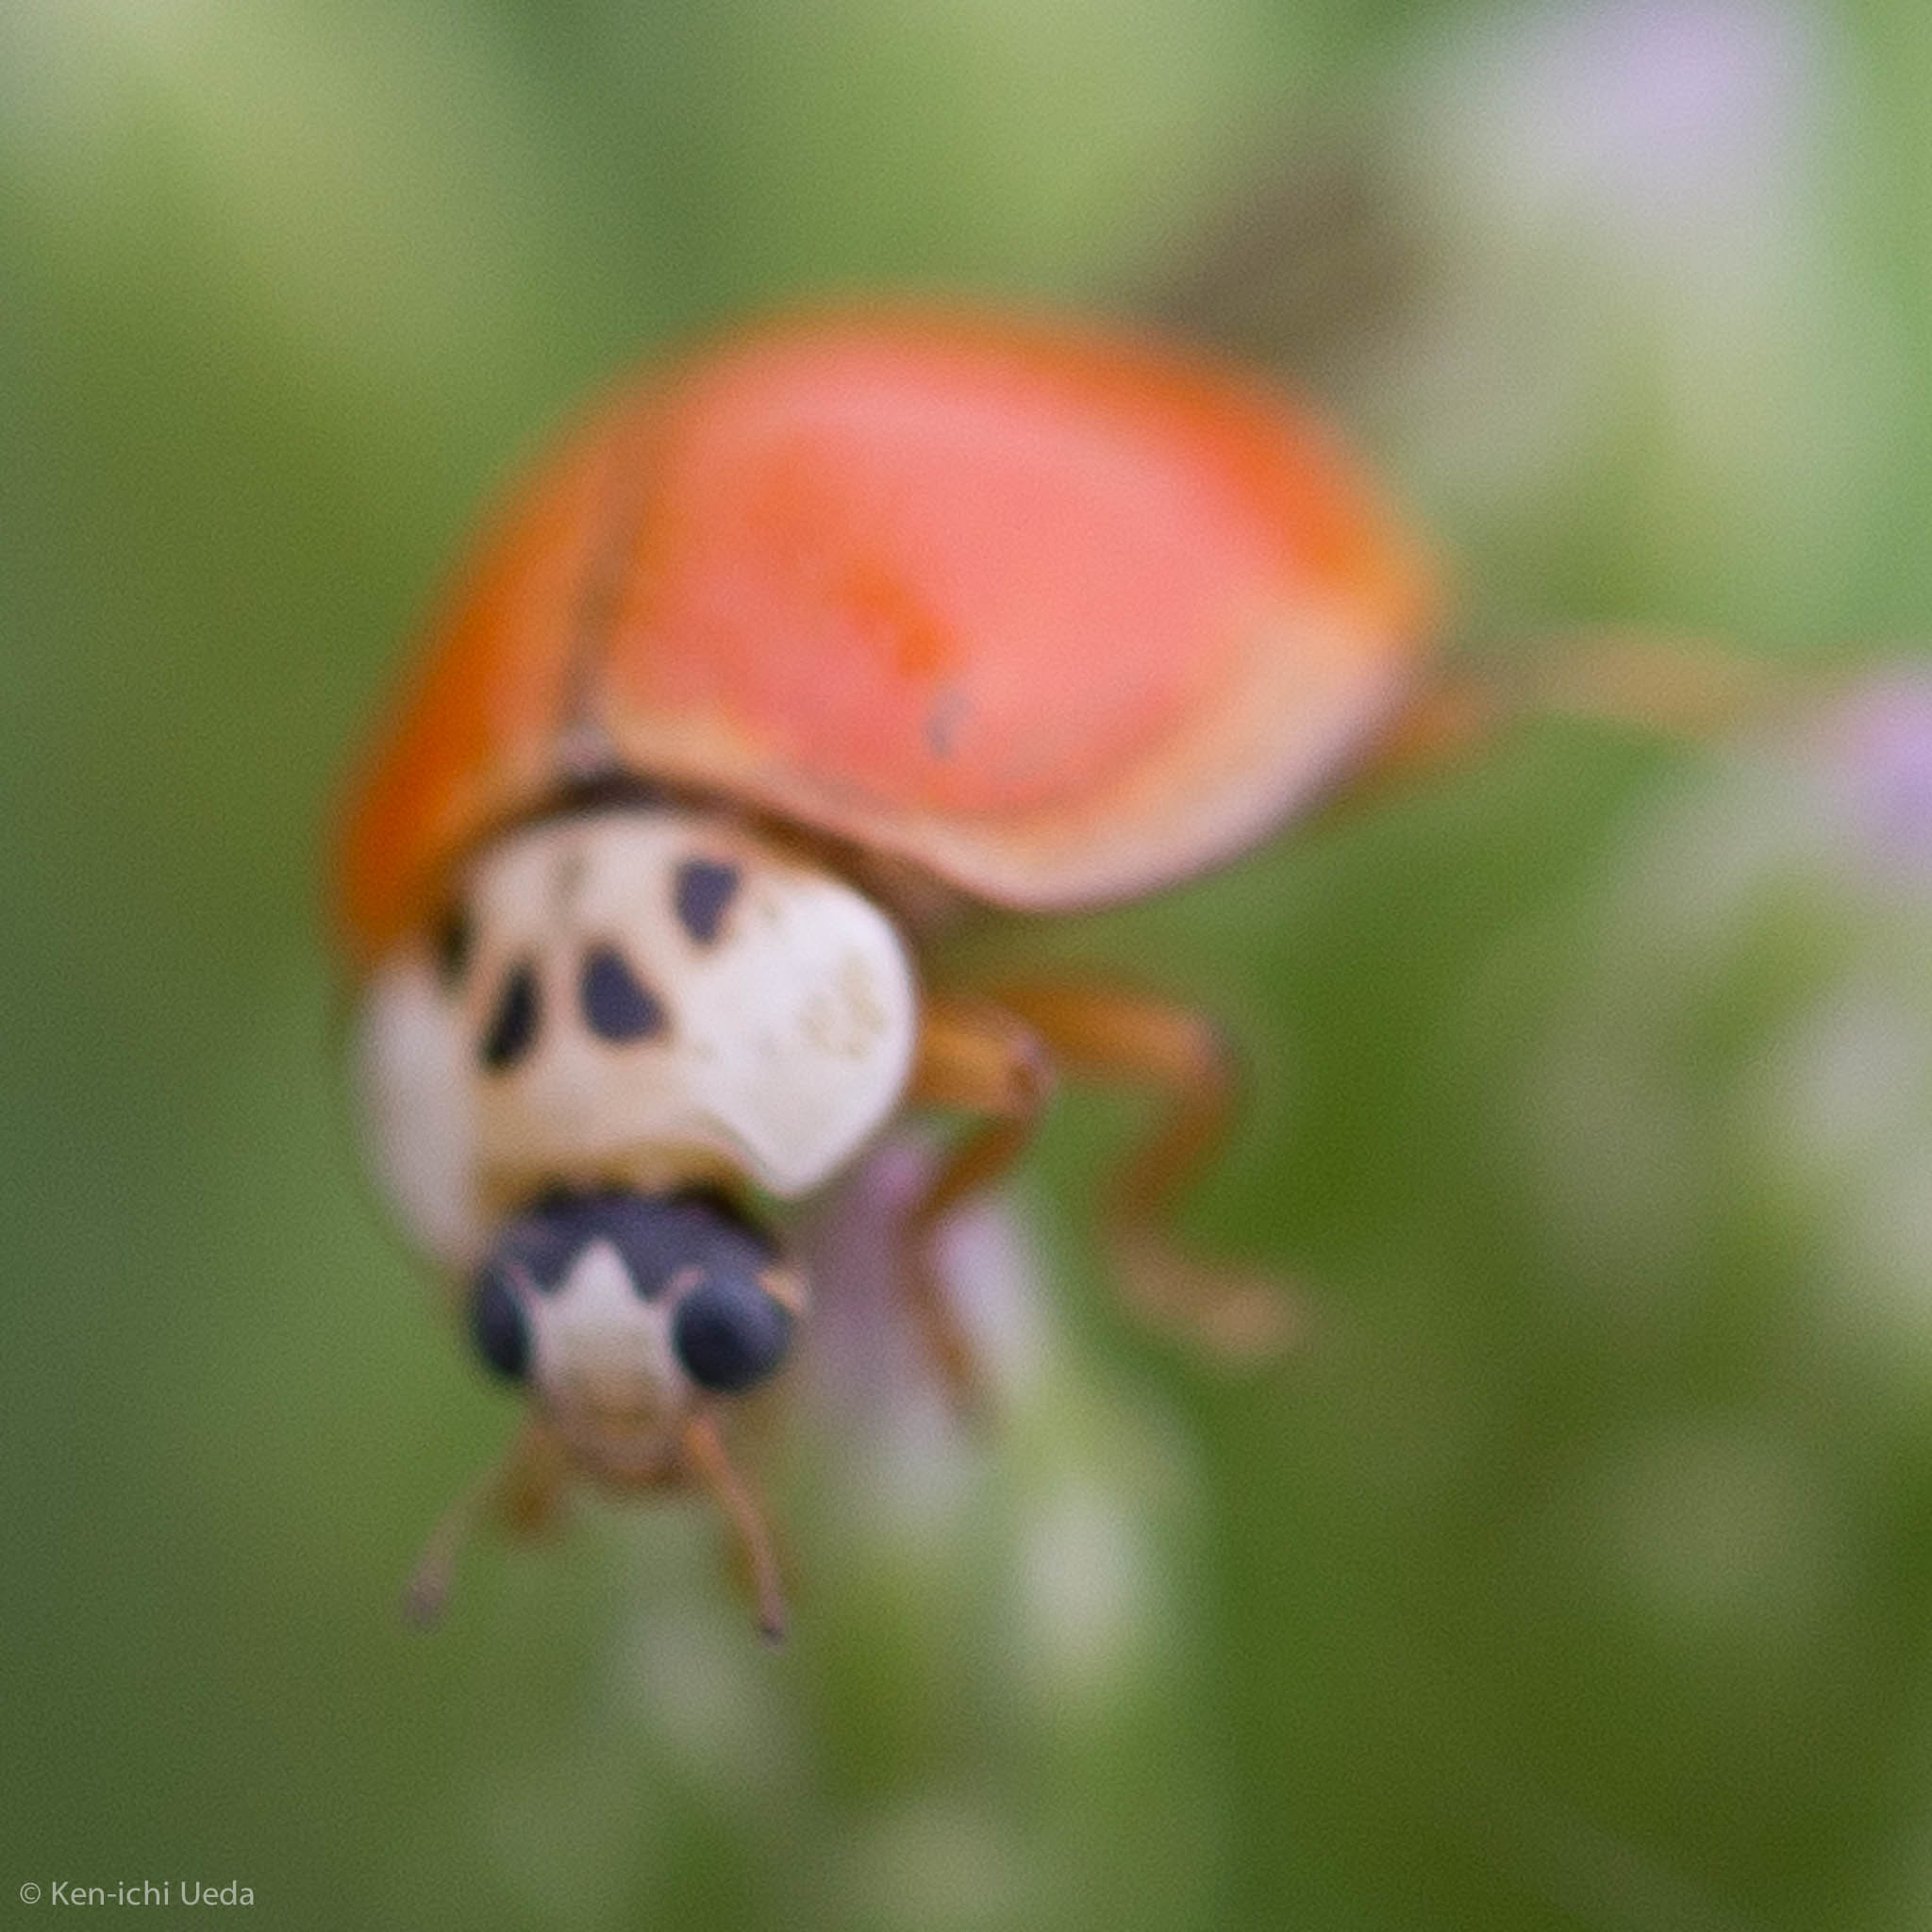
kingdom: Animalia
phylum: Arthropoda
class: Insecta
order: Coleoptera
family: Coccinellidae
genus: Harmonia
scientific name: Harmonia axyridis
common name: Harlequin ladybird
